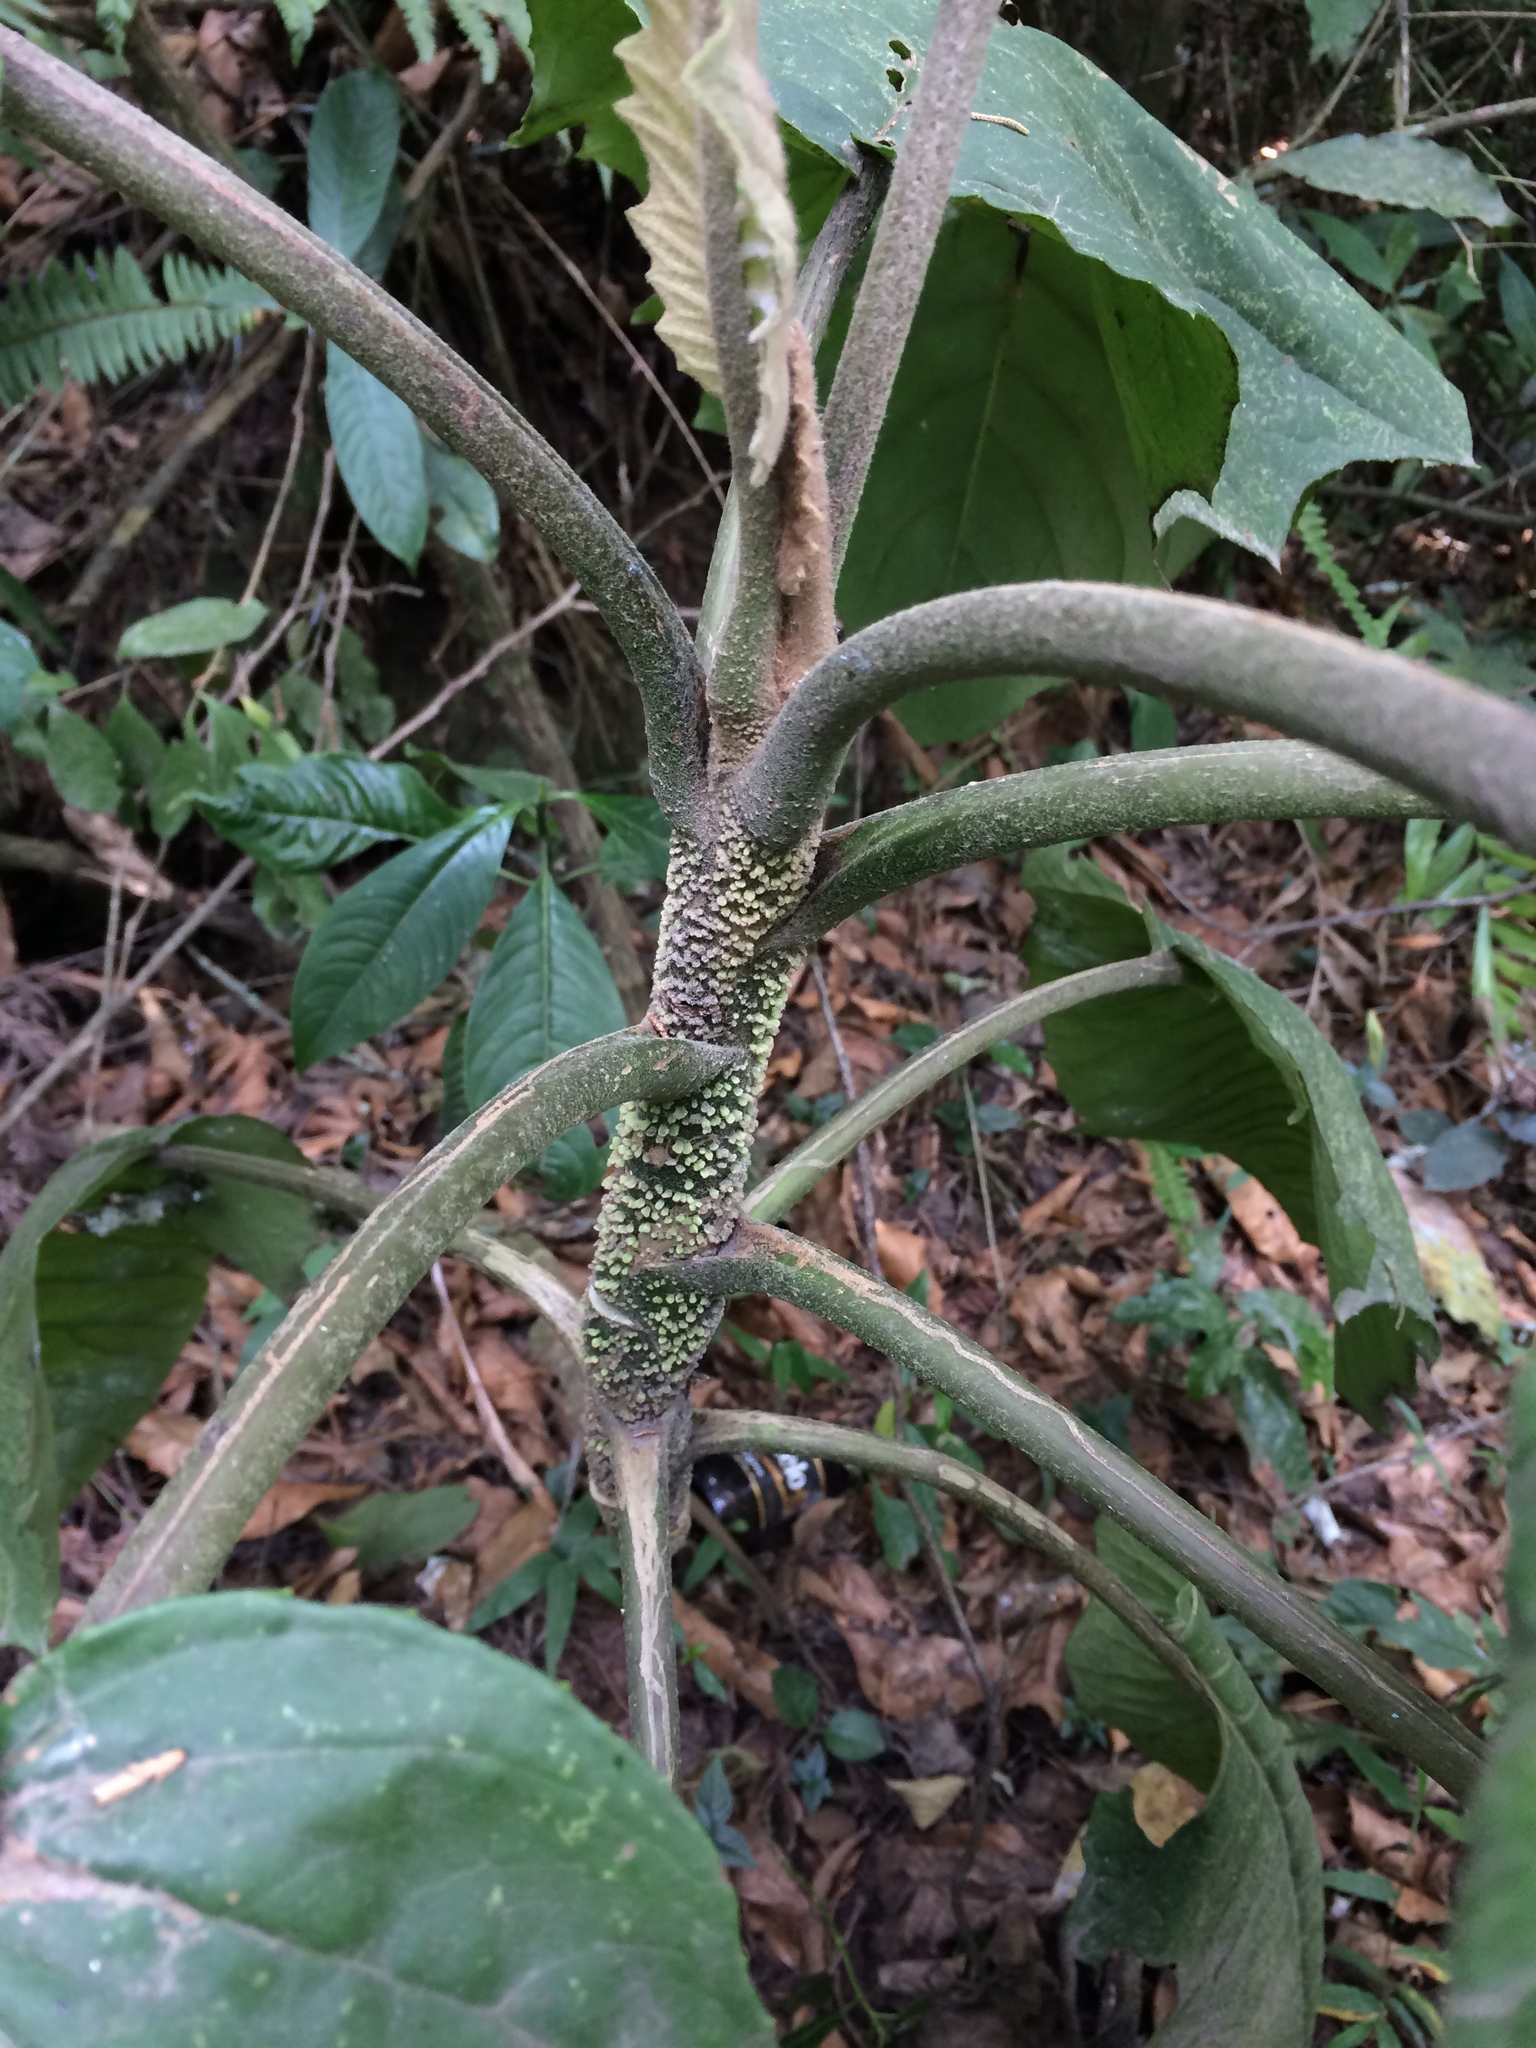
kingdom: Plantae
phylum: Tracheophyta
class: Magnoliopsida
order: Asterales
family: Asteraceae
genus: Telanthophora
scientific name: Telanthophora grandifolia
